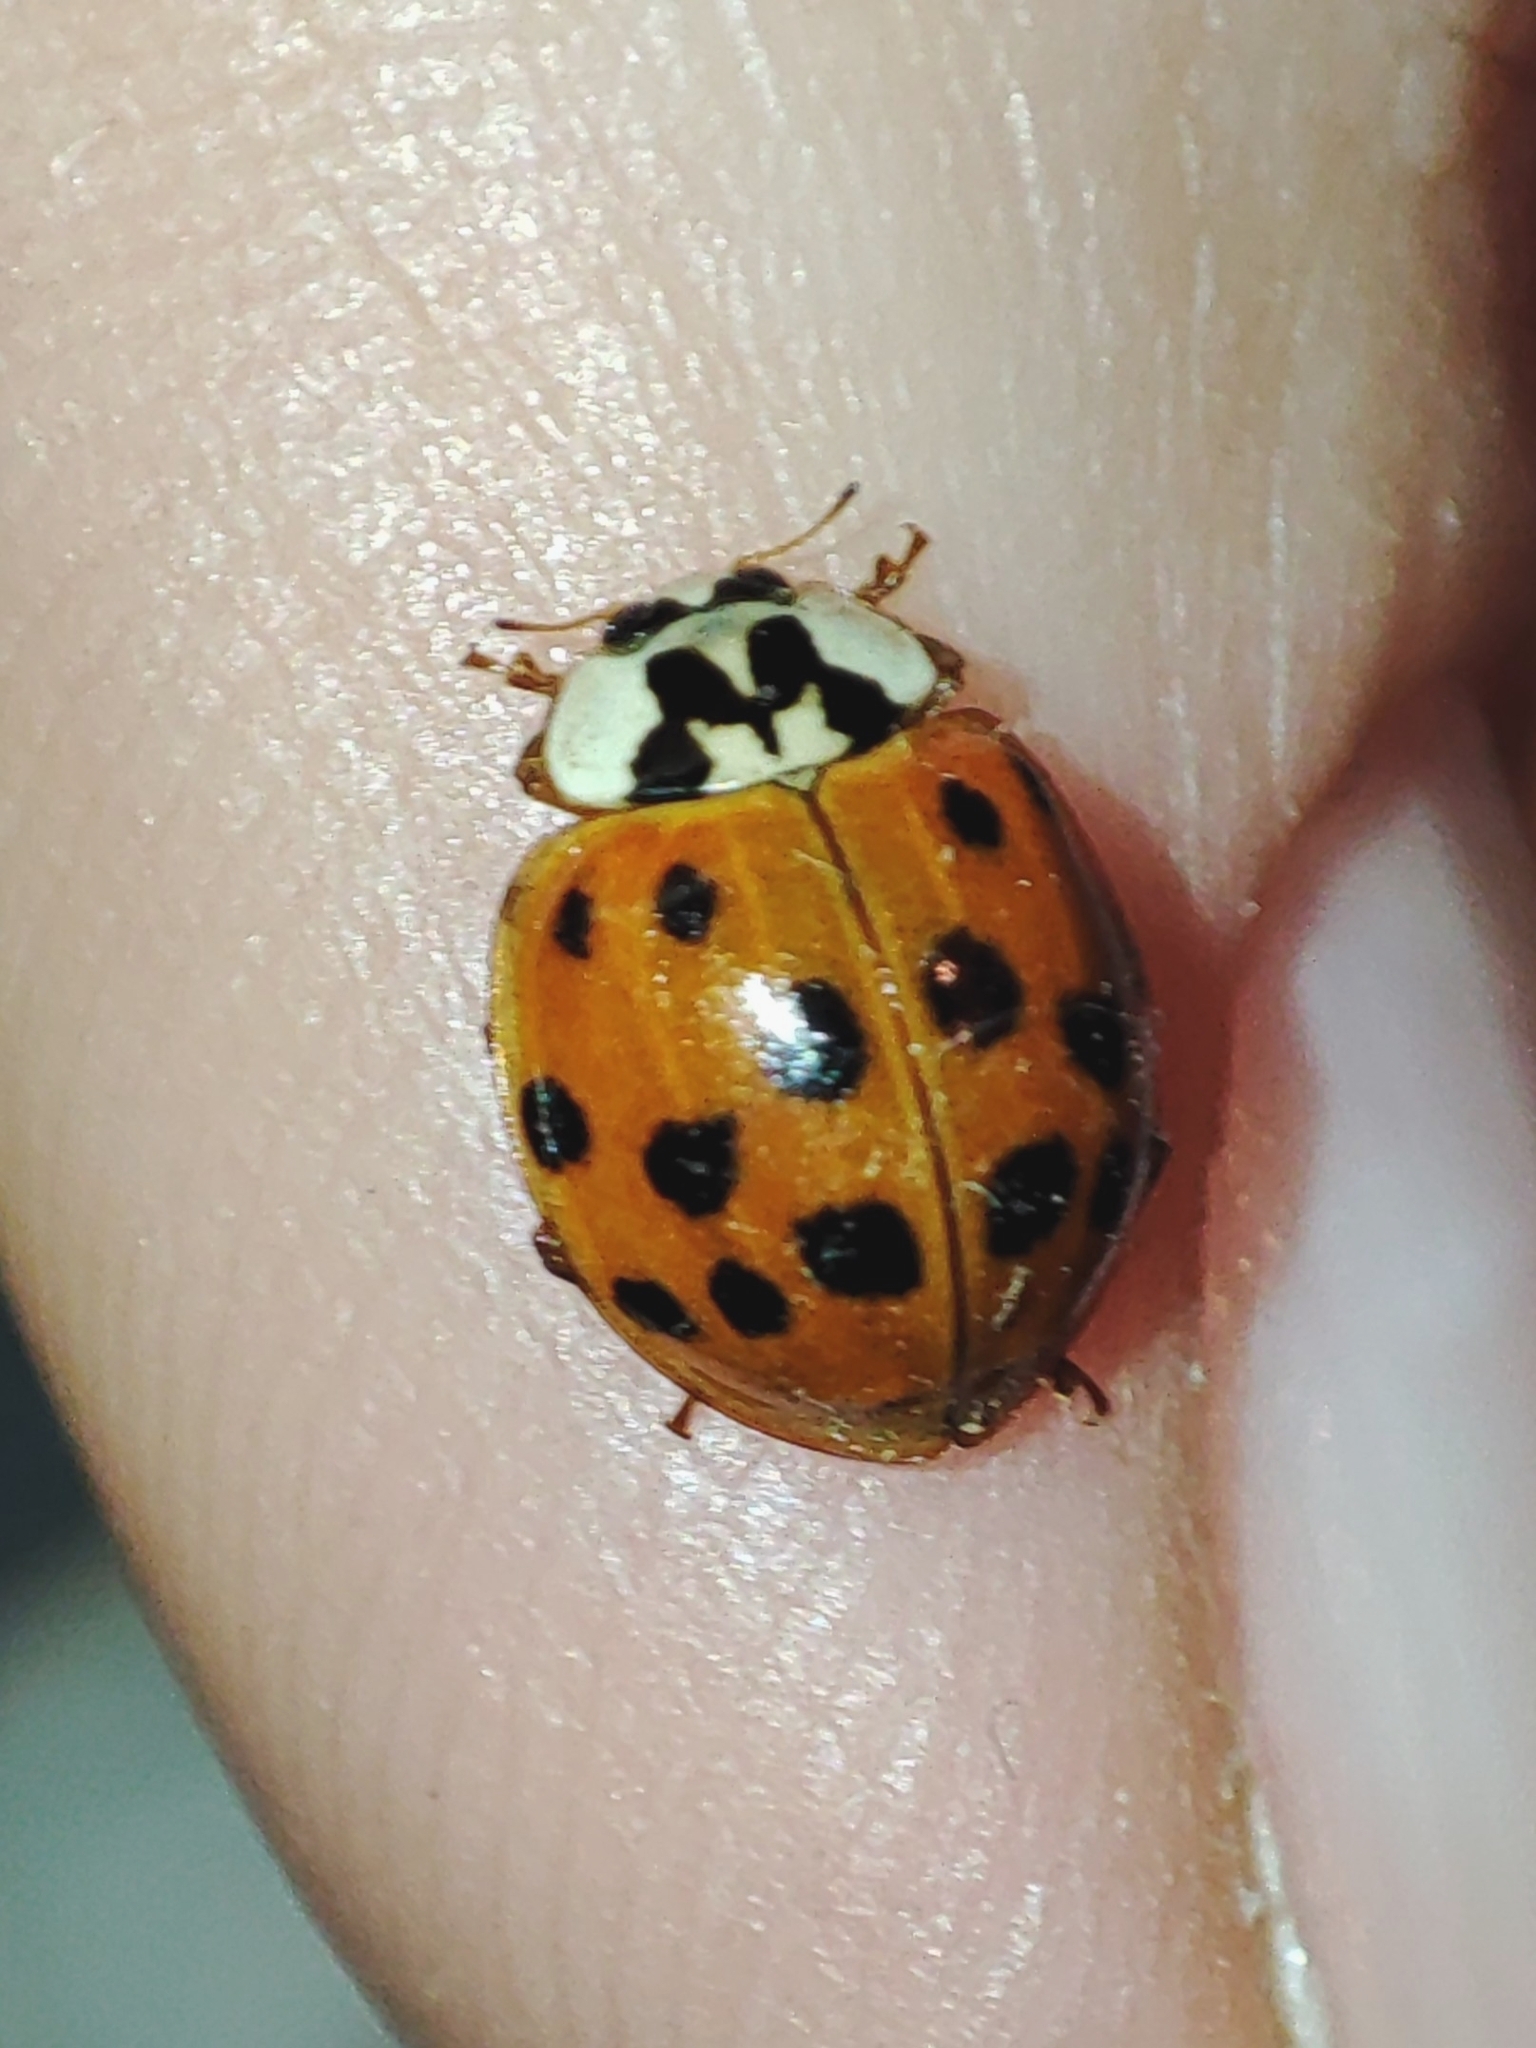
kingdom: Animalia
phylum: Arthropoda
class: Insecta
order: Coleoptera
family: Coccinellidae
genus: Harmonia
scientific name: Harmonia axyridis
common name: Harlequin ladybird
